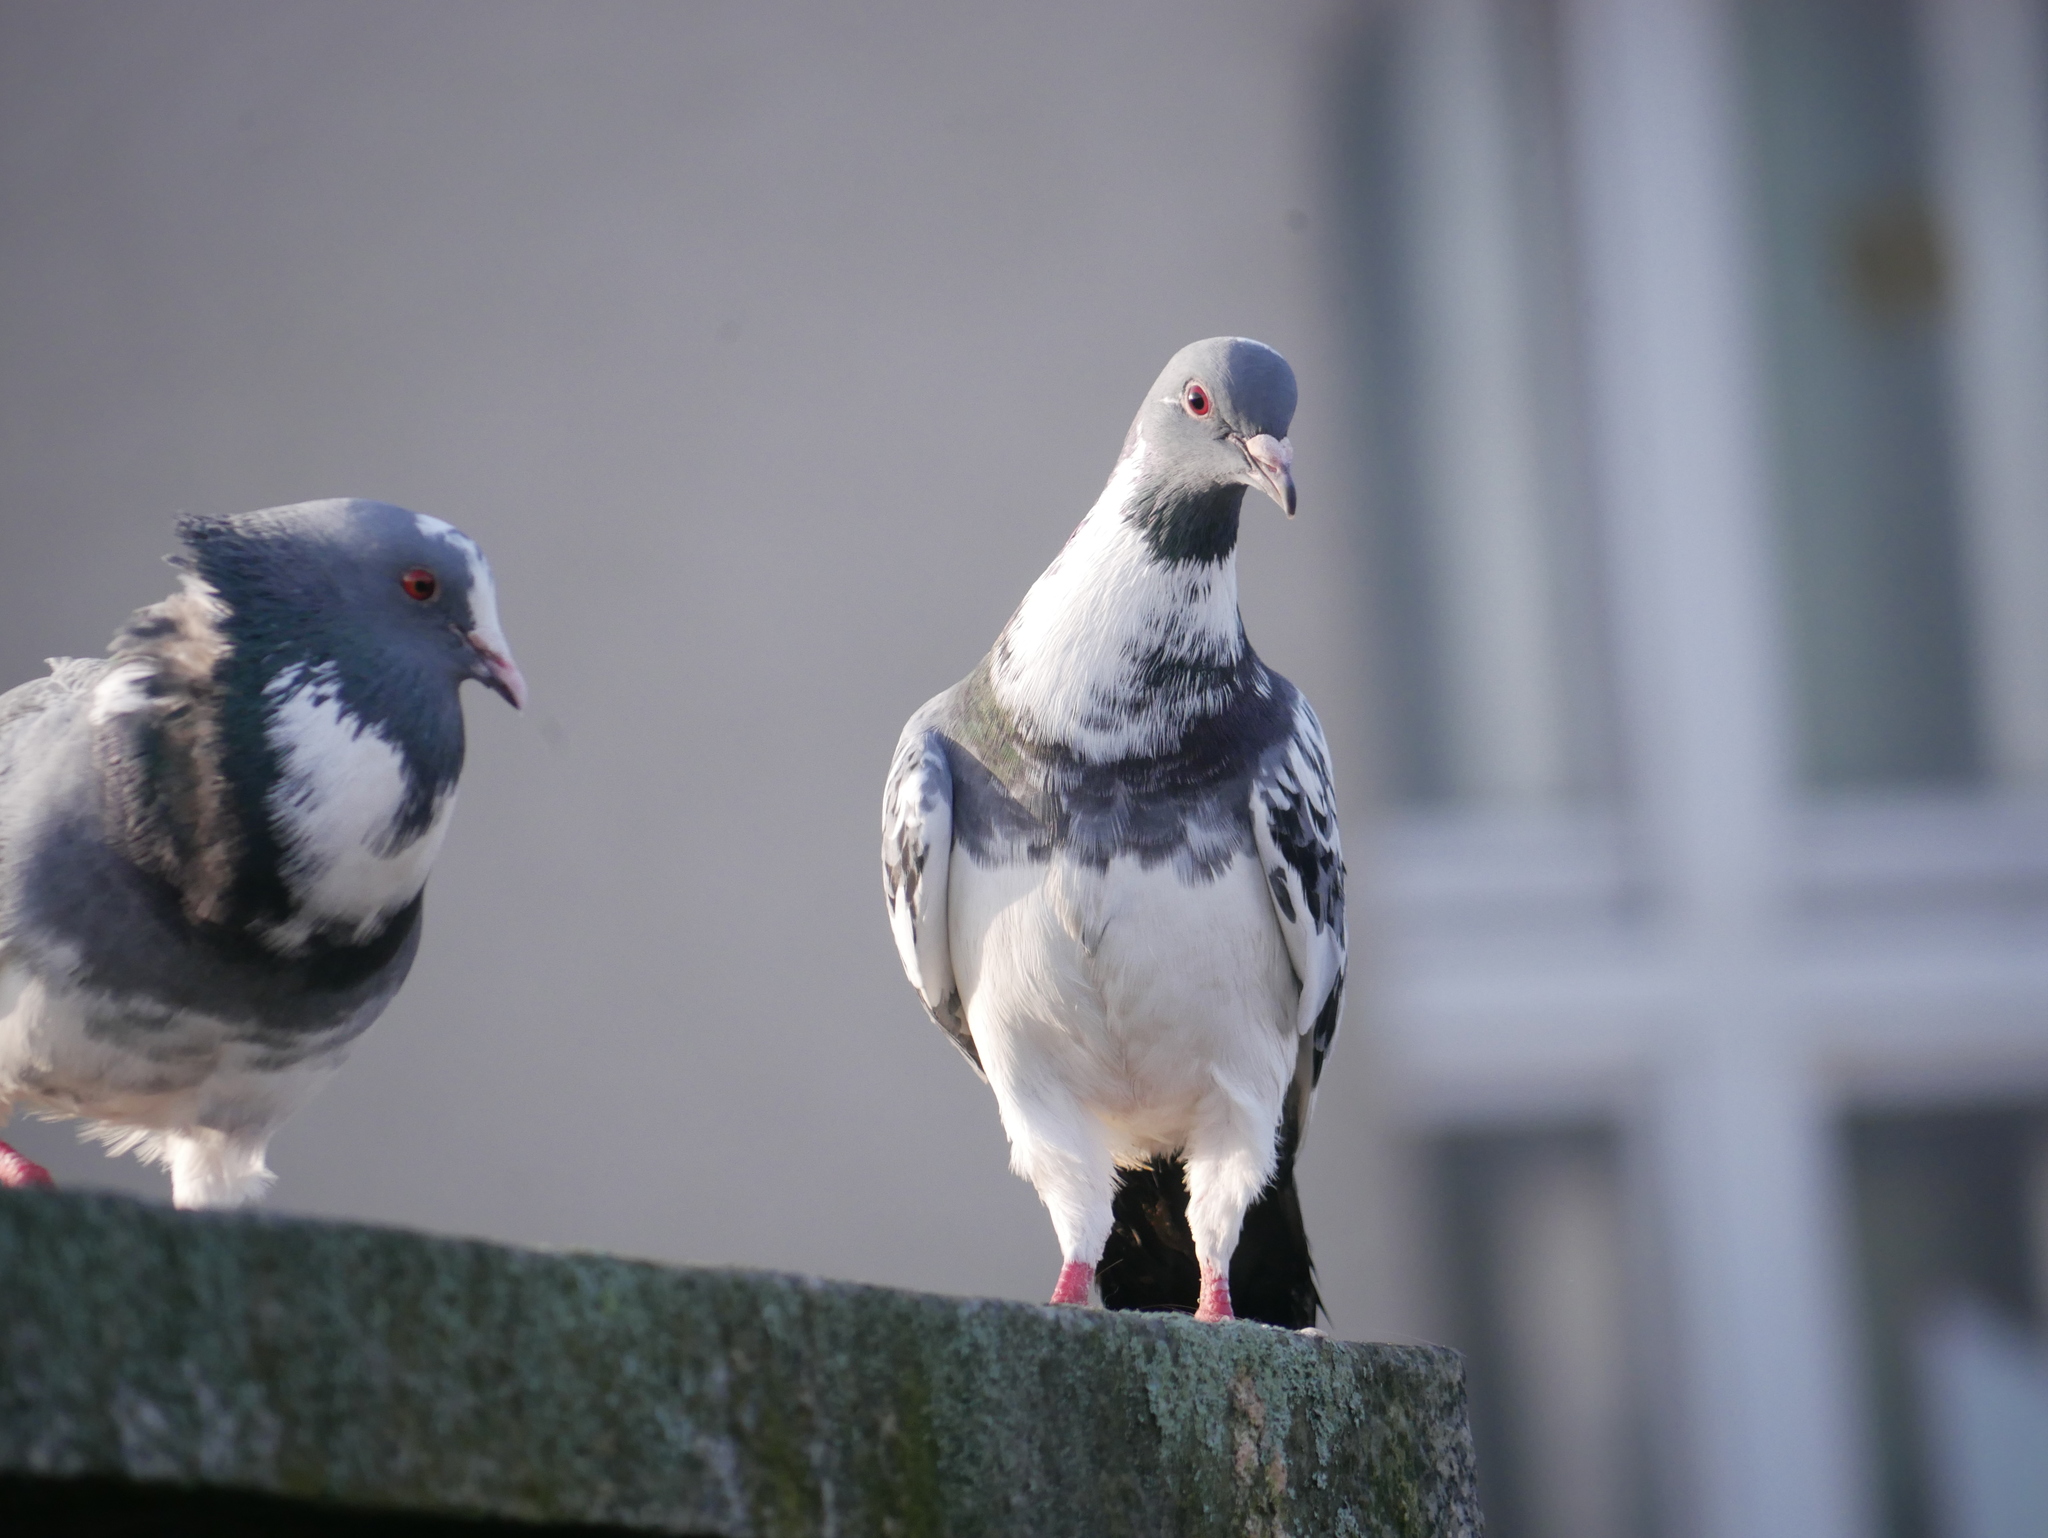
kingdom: Animalia
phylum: Chordata
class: Aves
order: Columbiformes
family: Columbidae
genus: Columba
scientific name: Columba livia
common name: Rock pigeon
